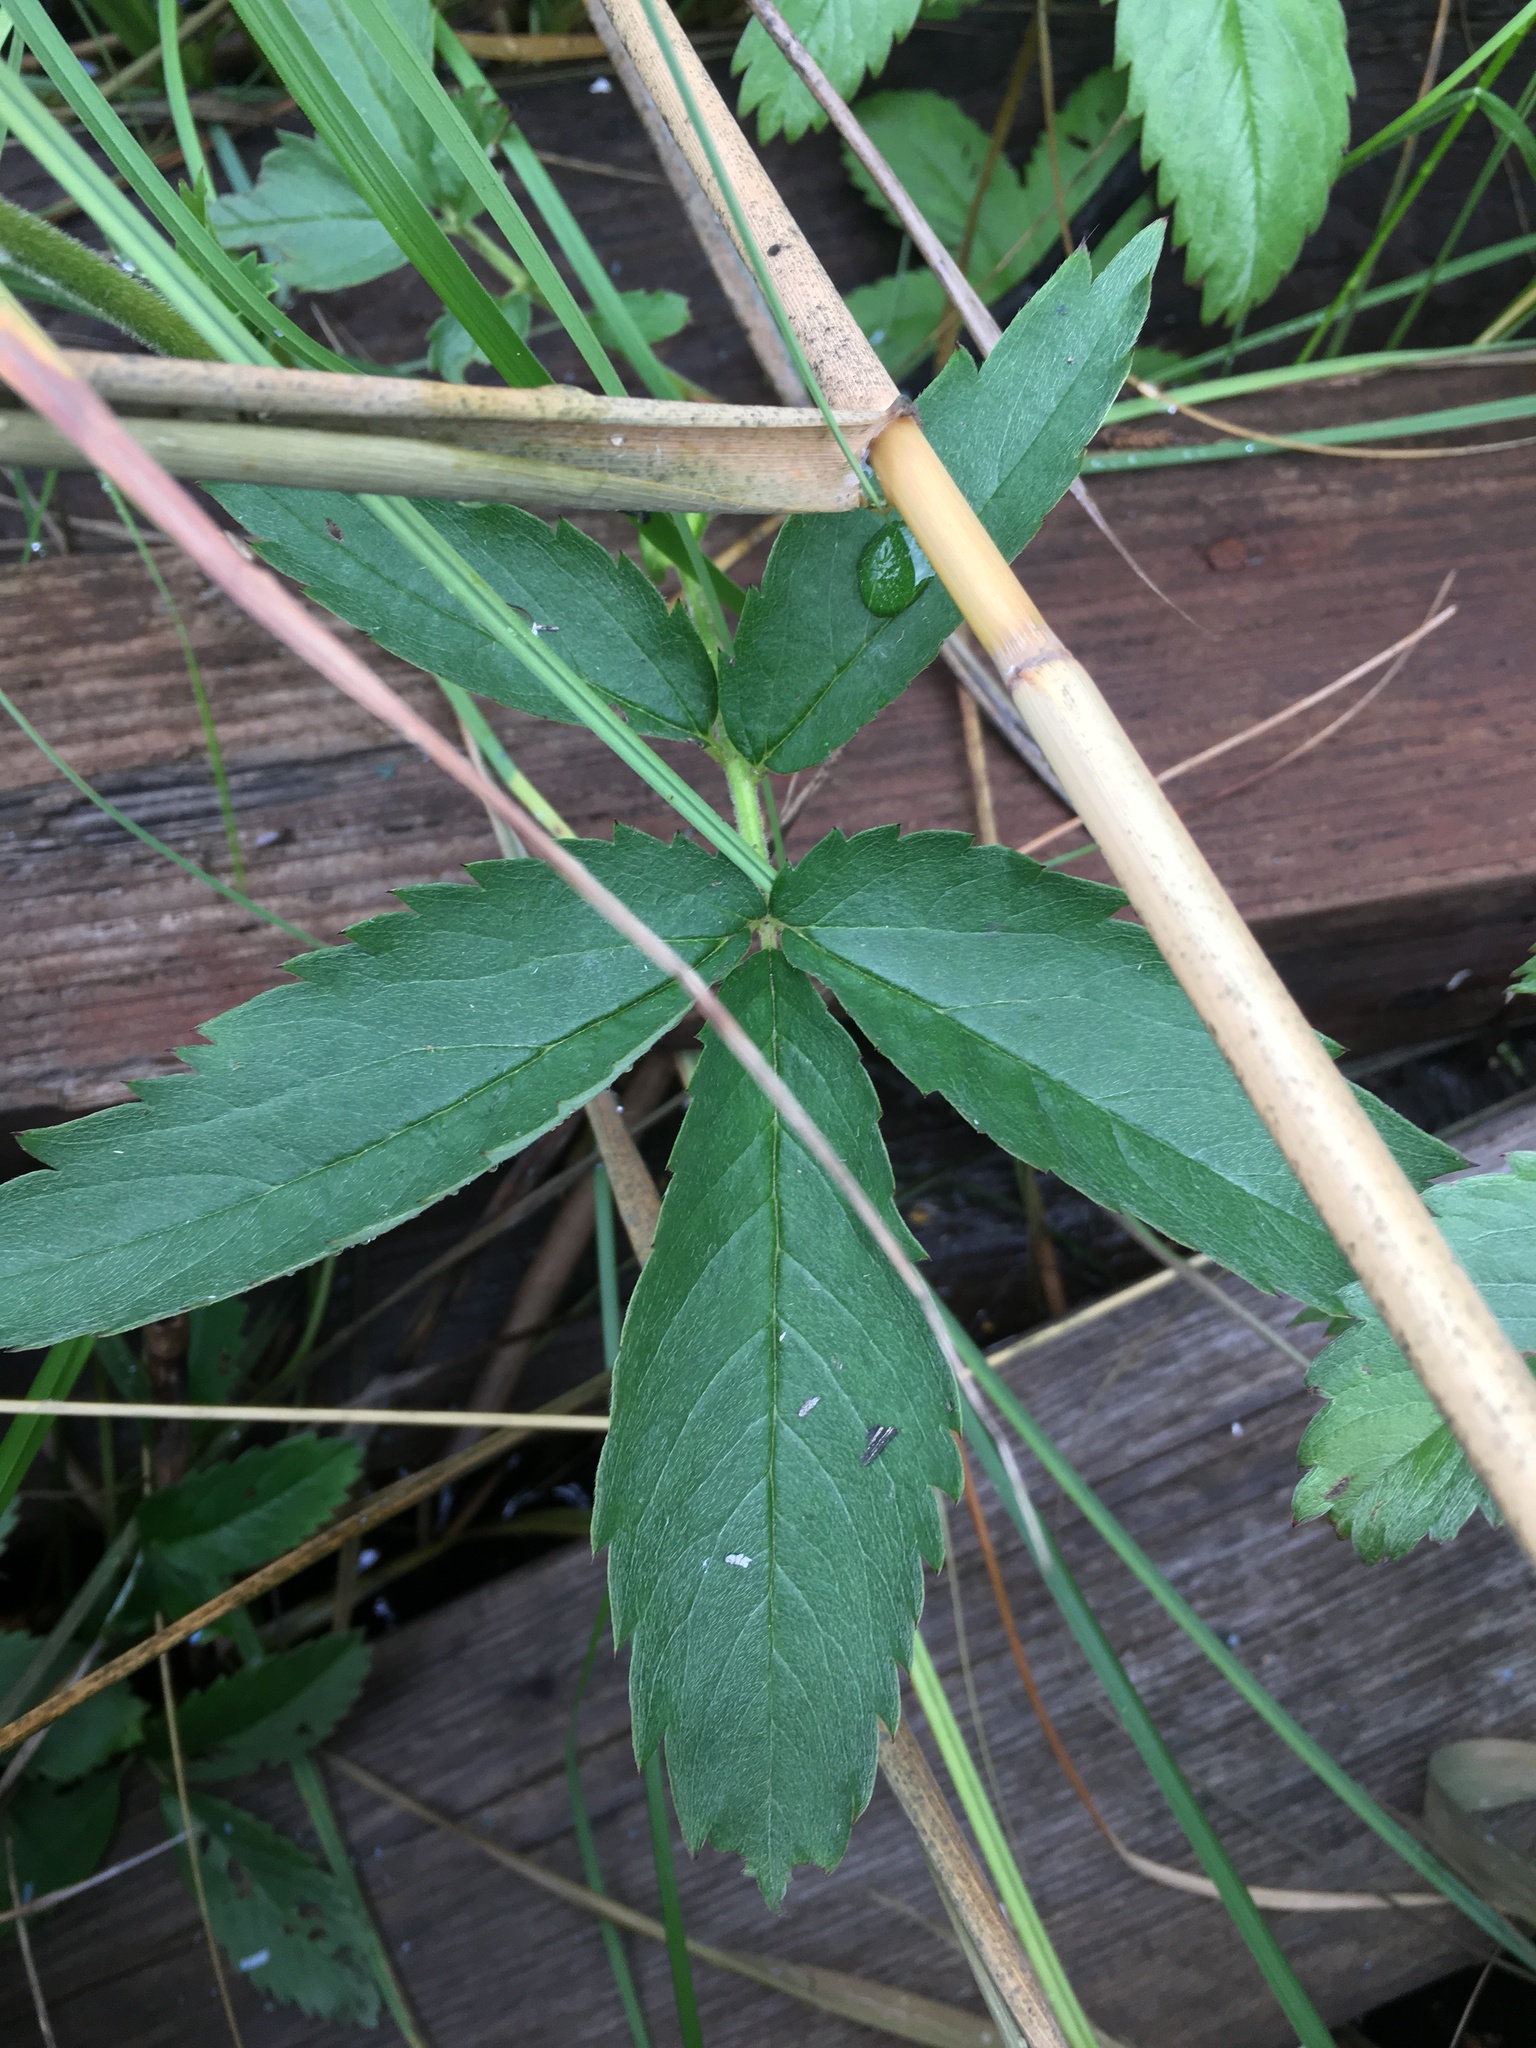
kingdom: Plantae
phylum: Tracheophyta
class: Magnoliopsida
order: Rosales
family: Rosaceae
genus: Comarum
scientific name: Comarum palustre
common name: Marsh cinquefoil
